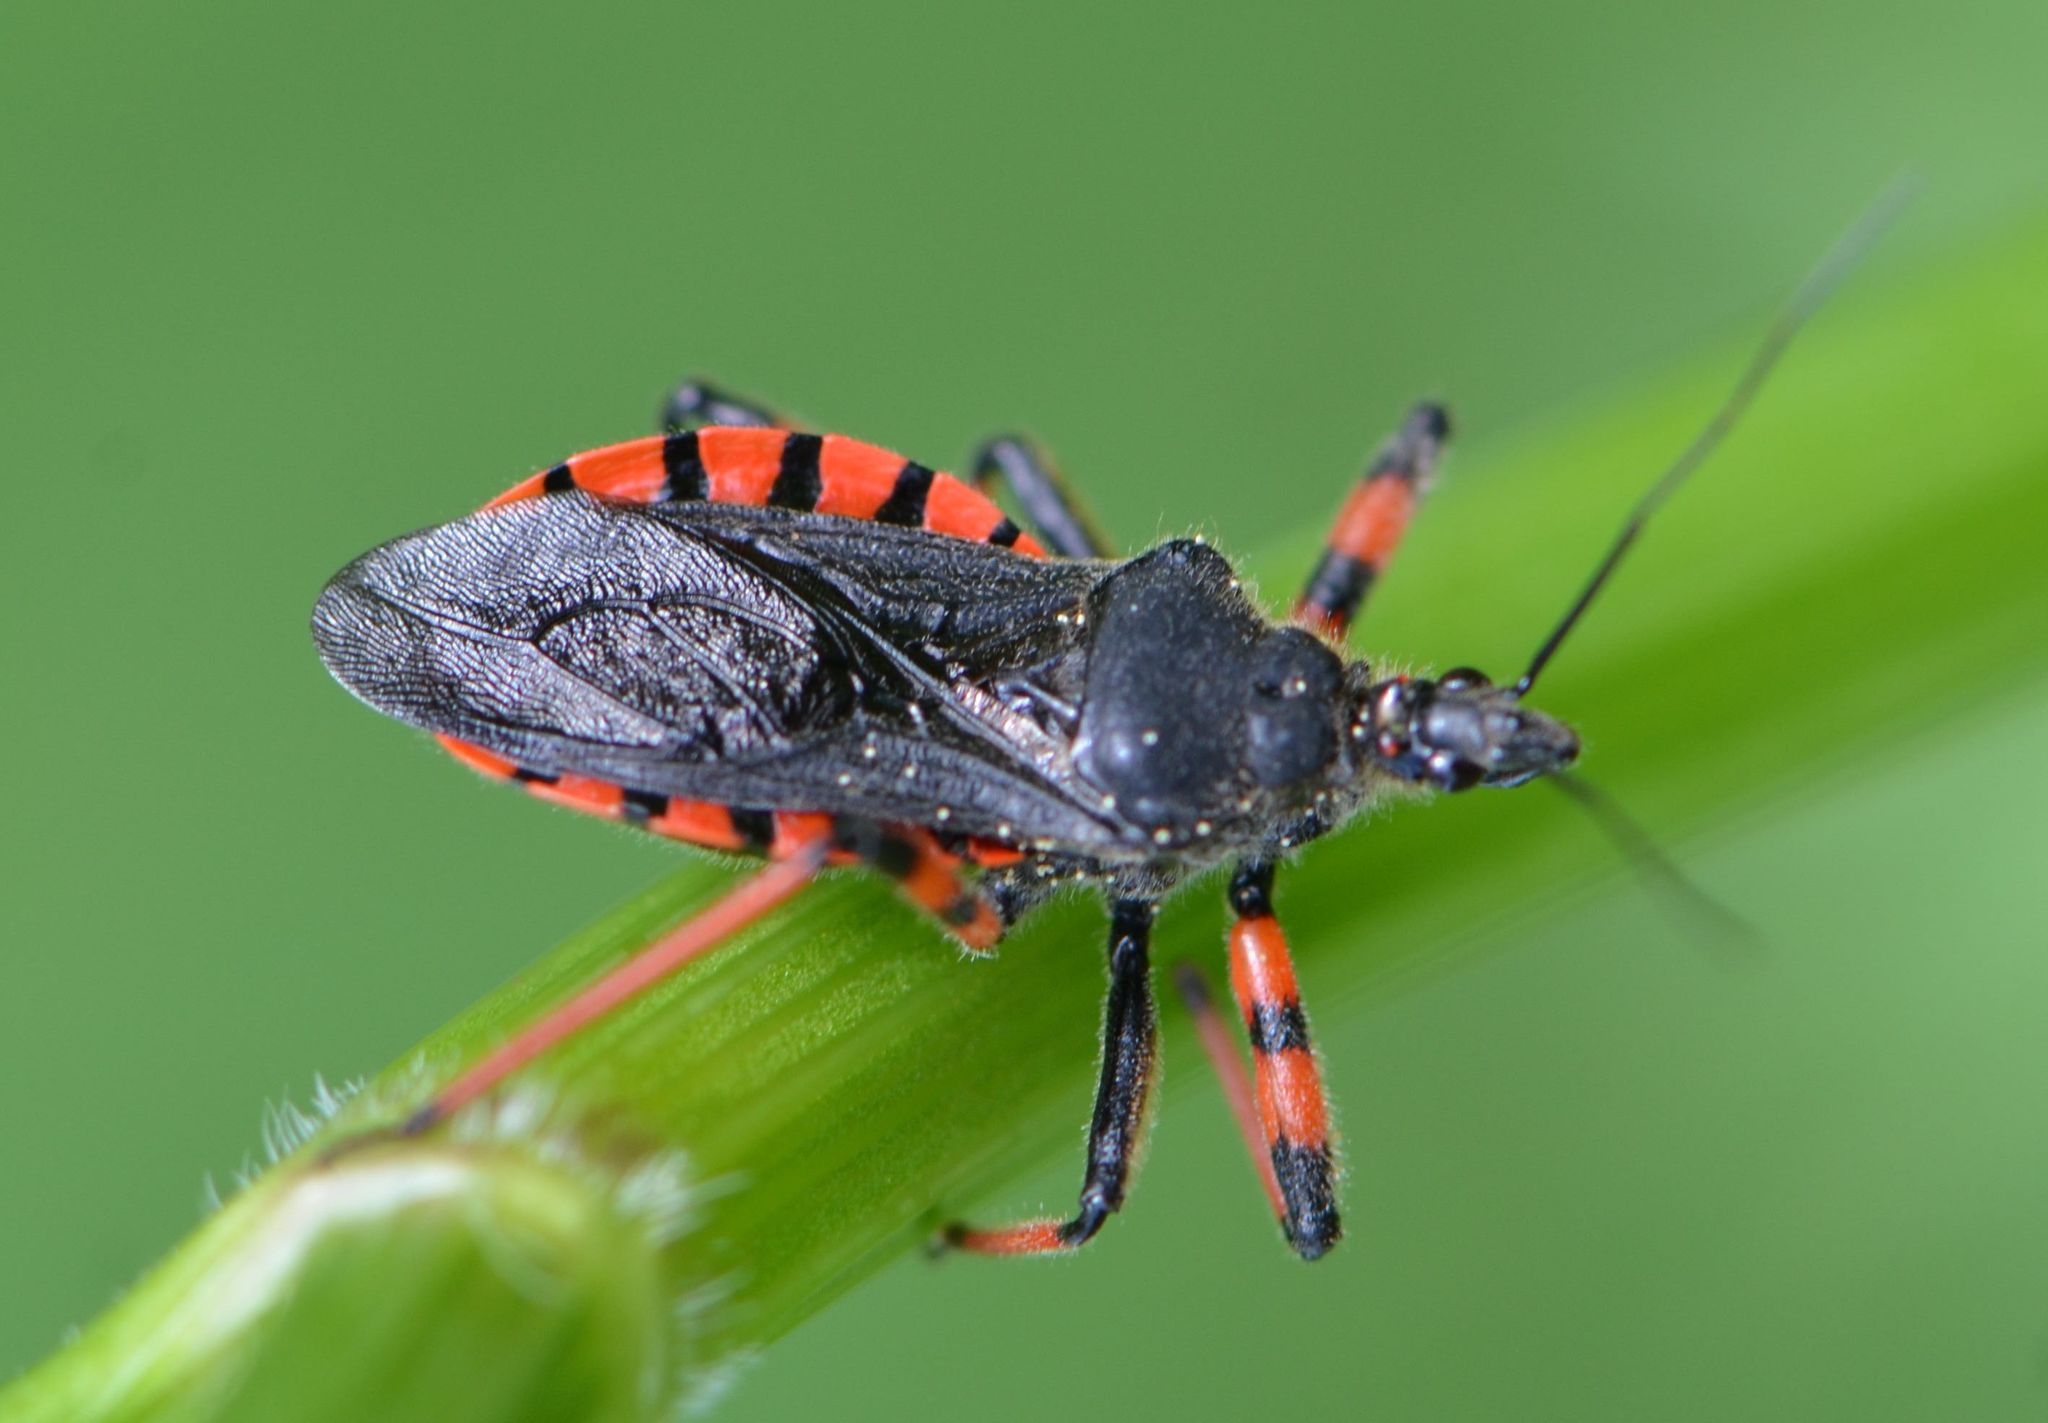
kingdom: Animalia
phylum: Arthropoda
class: Insecta
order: Hemiptera
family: Reduviidae
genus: Rhynocoris
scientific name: Rhynocoris annulatus
